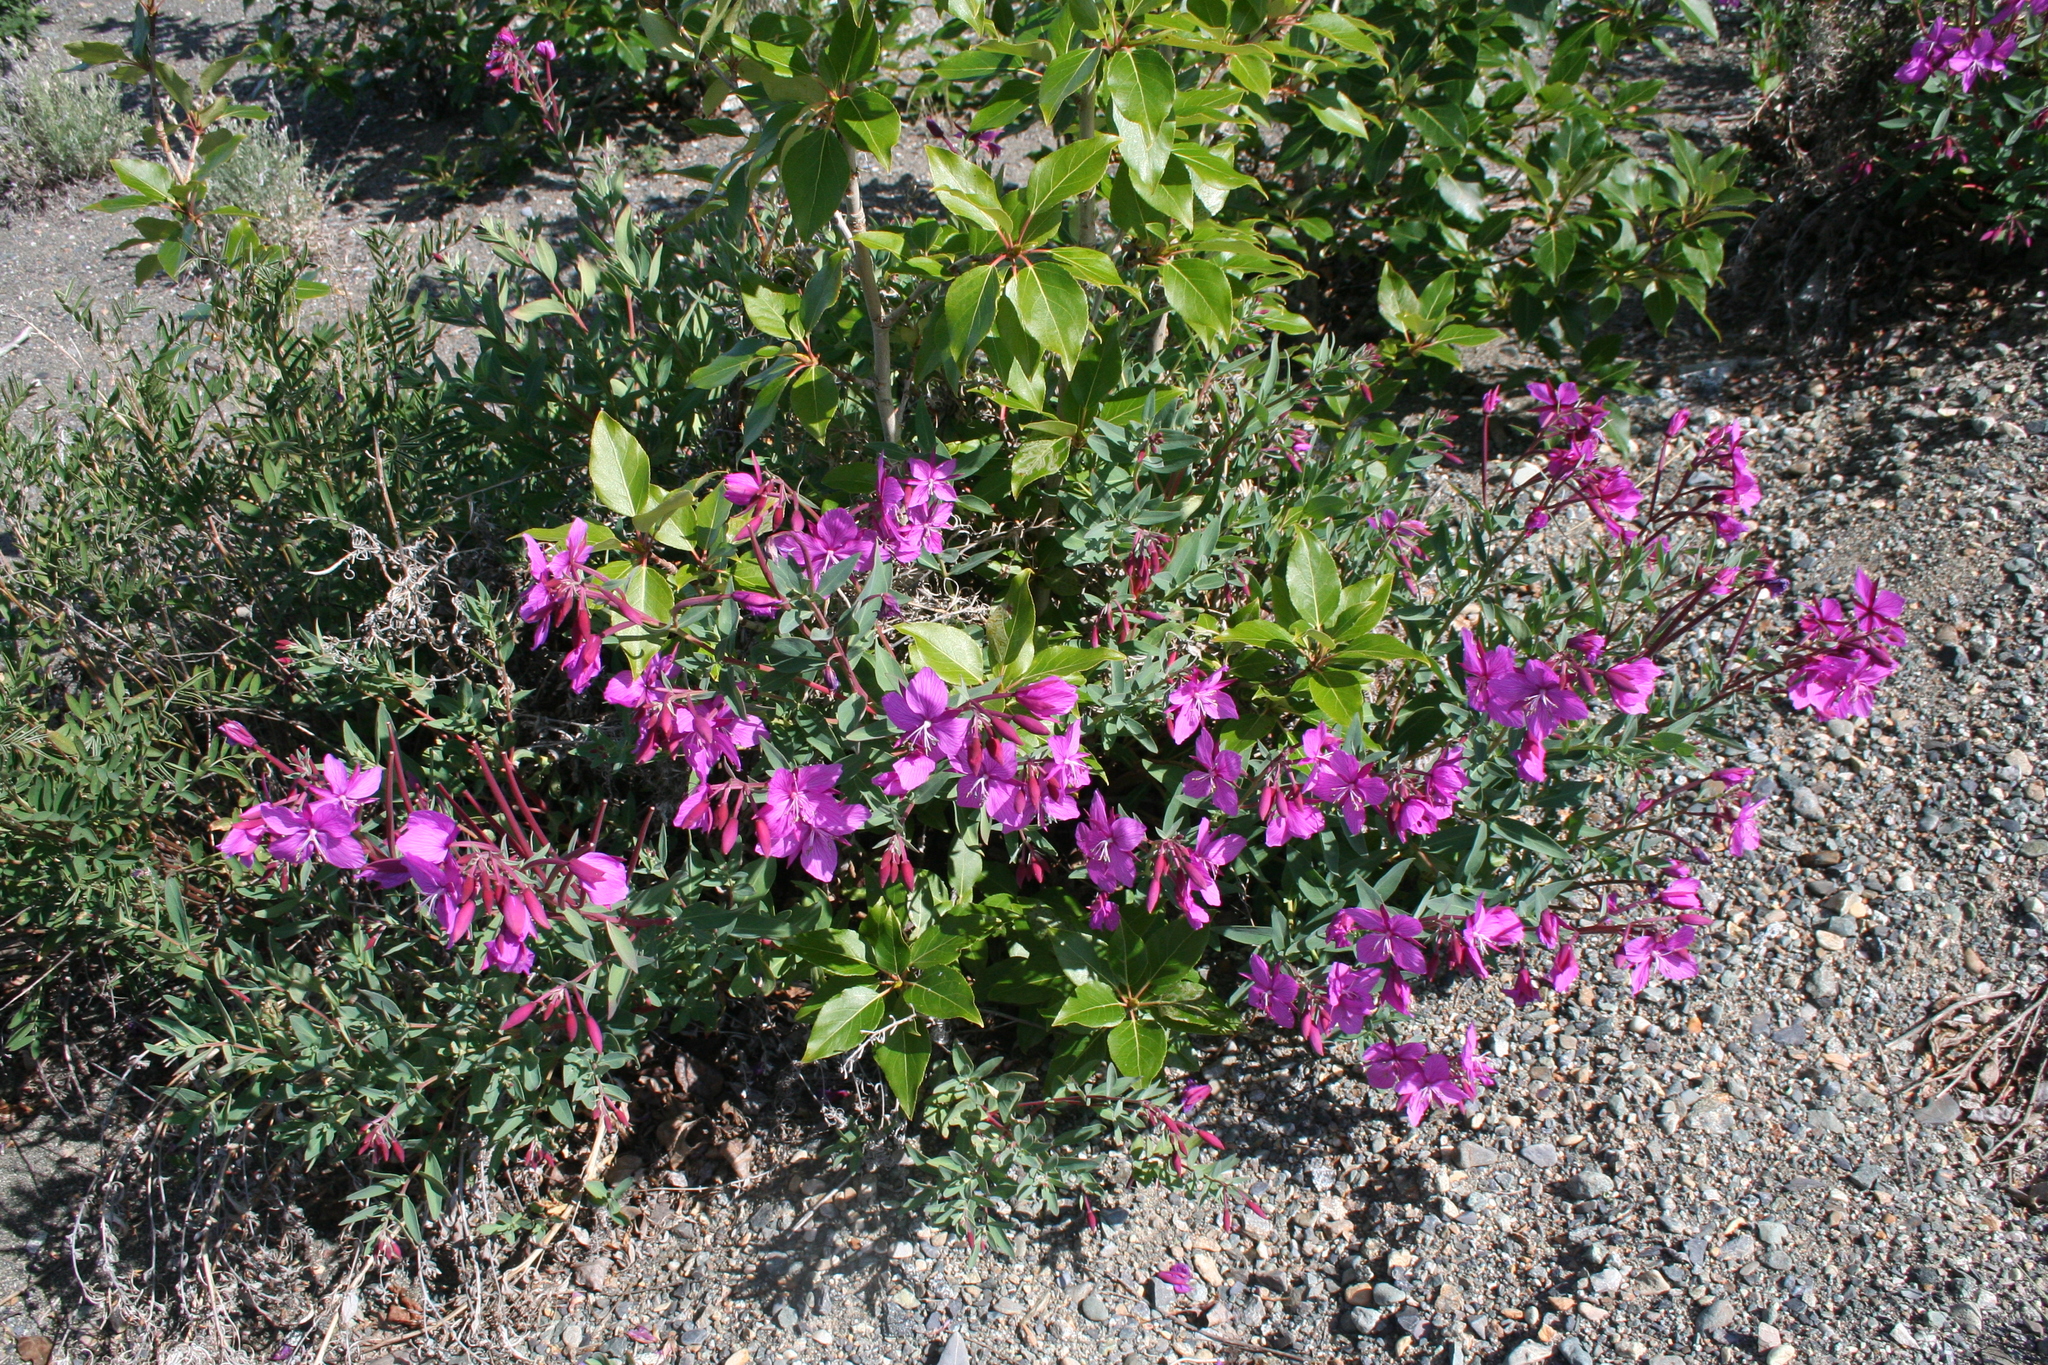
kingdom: Plantae
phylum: Tracheophyta
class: Magnoliopsida
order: Myrtales
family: Onagraceae
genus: Chamaenerion
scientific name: Chamaenerion latifolium
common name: Dwarf fireweed
